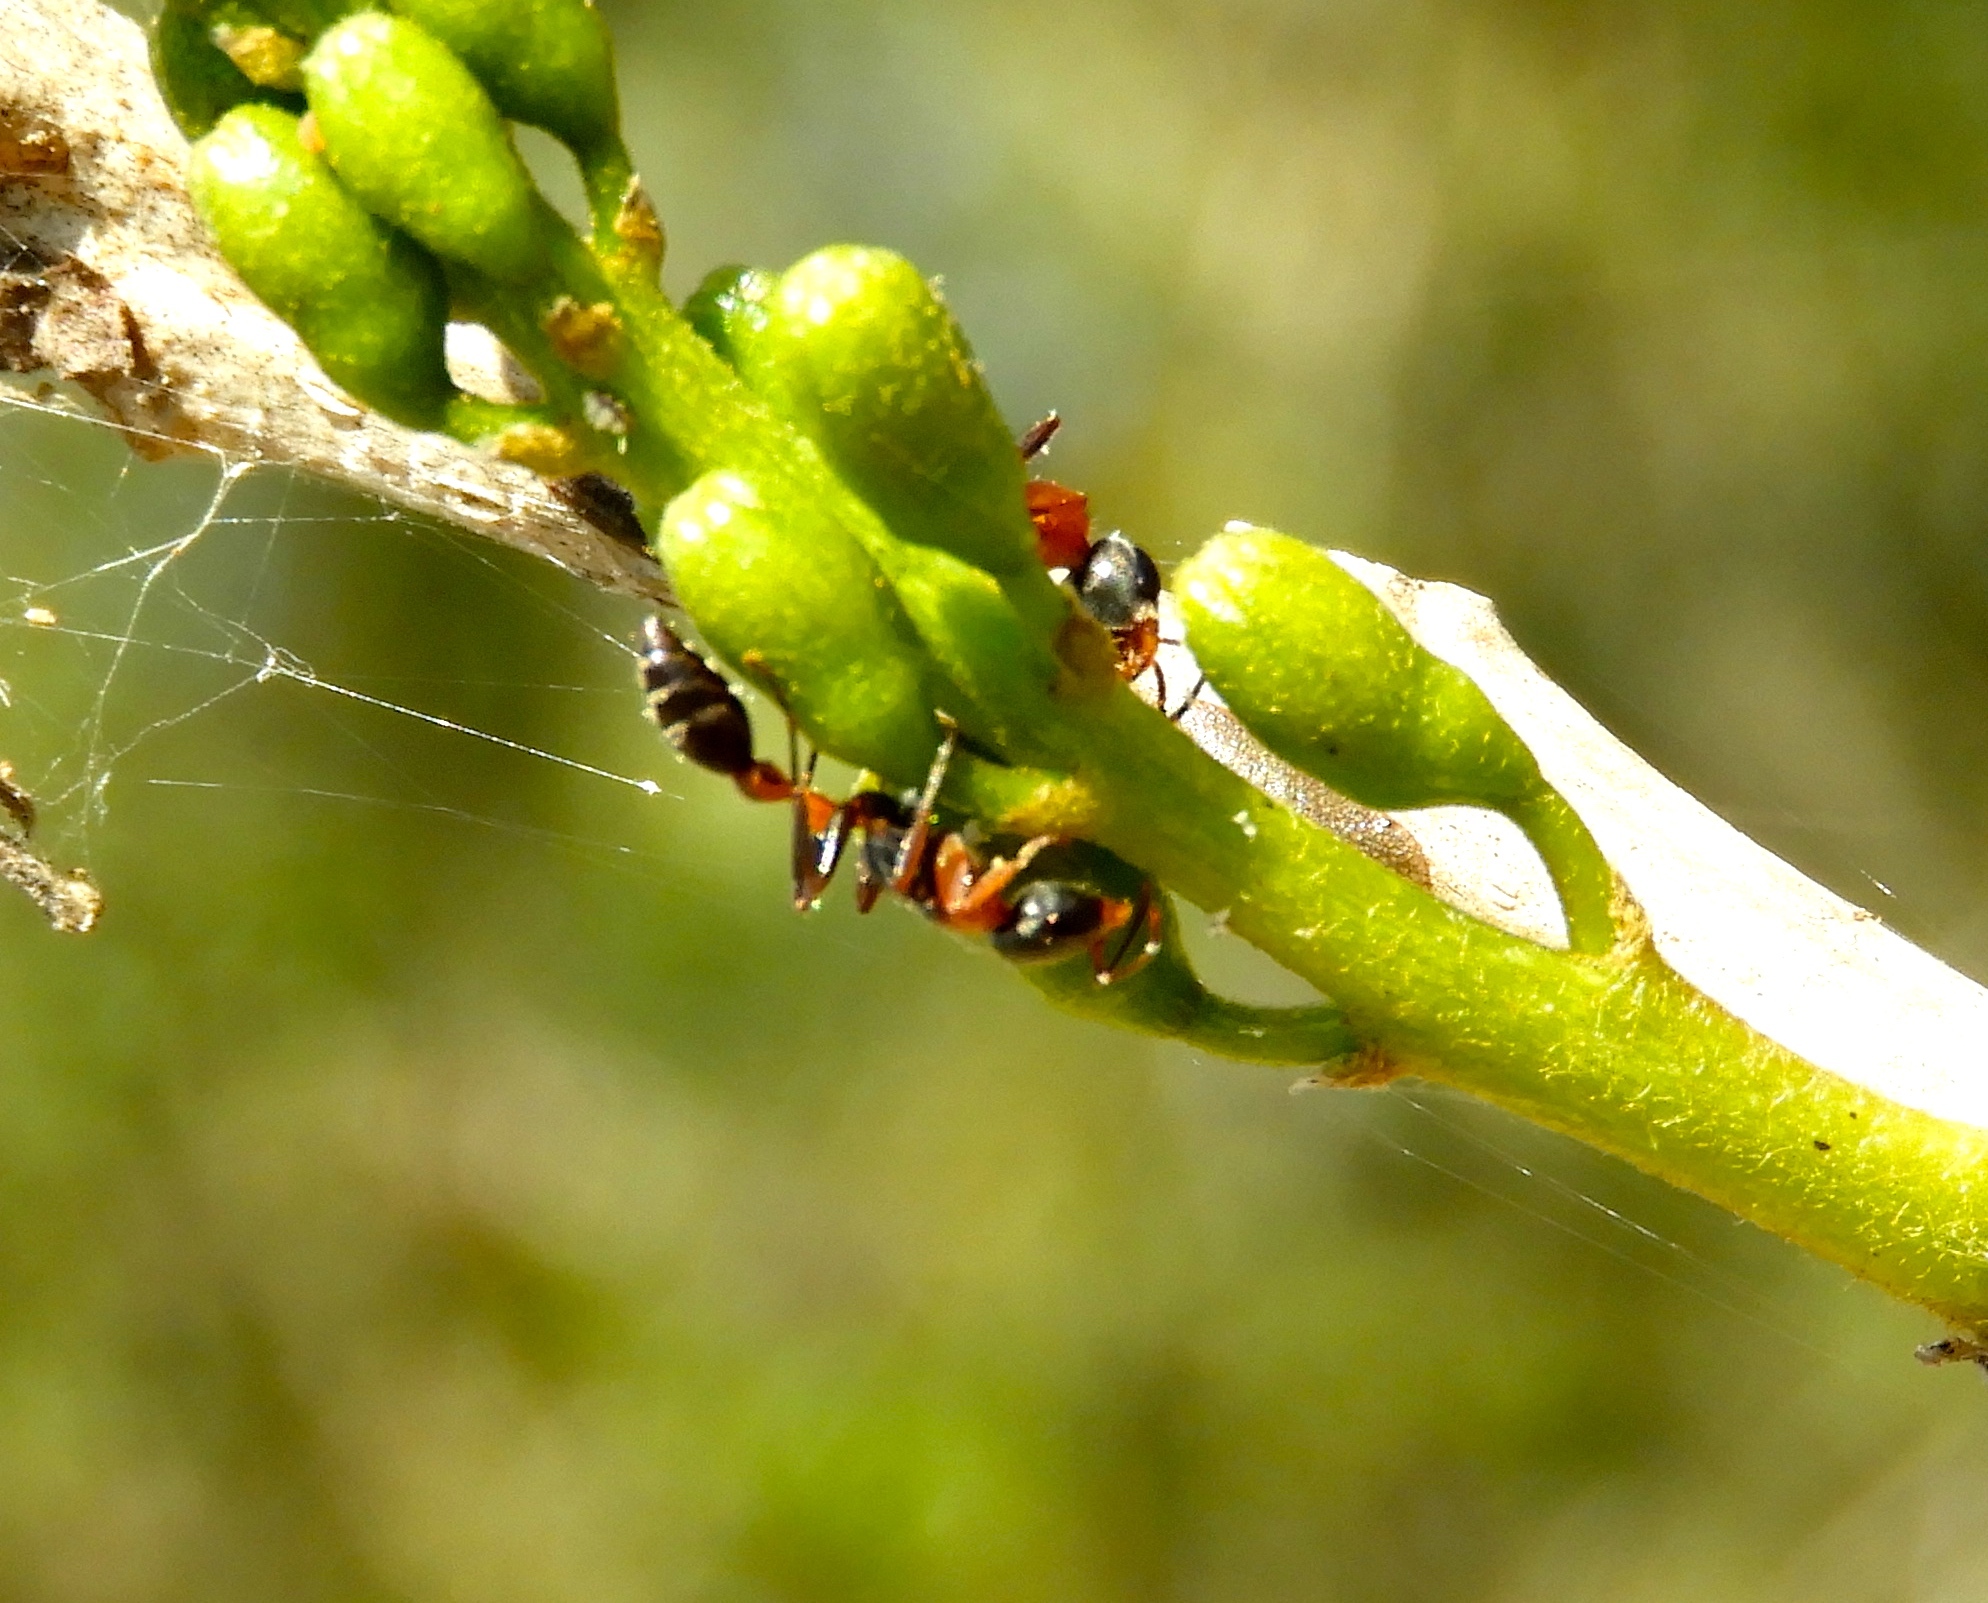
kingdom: Animalia
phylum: Arthropoda
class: Insecta
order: Hymenoptera
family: Formicidae
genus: Pseudomyrmex
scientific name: Pseudomyrmex
